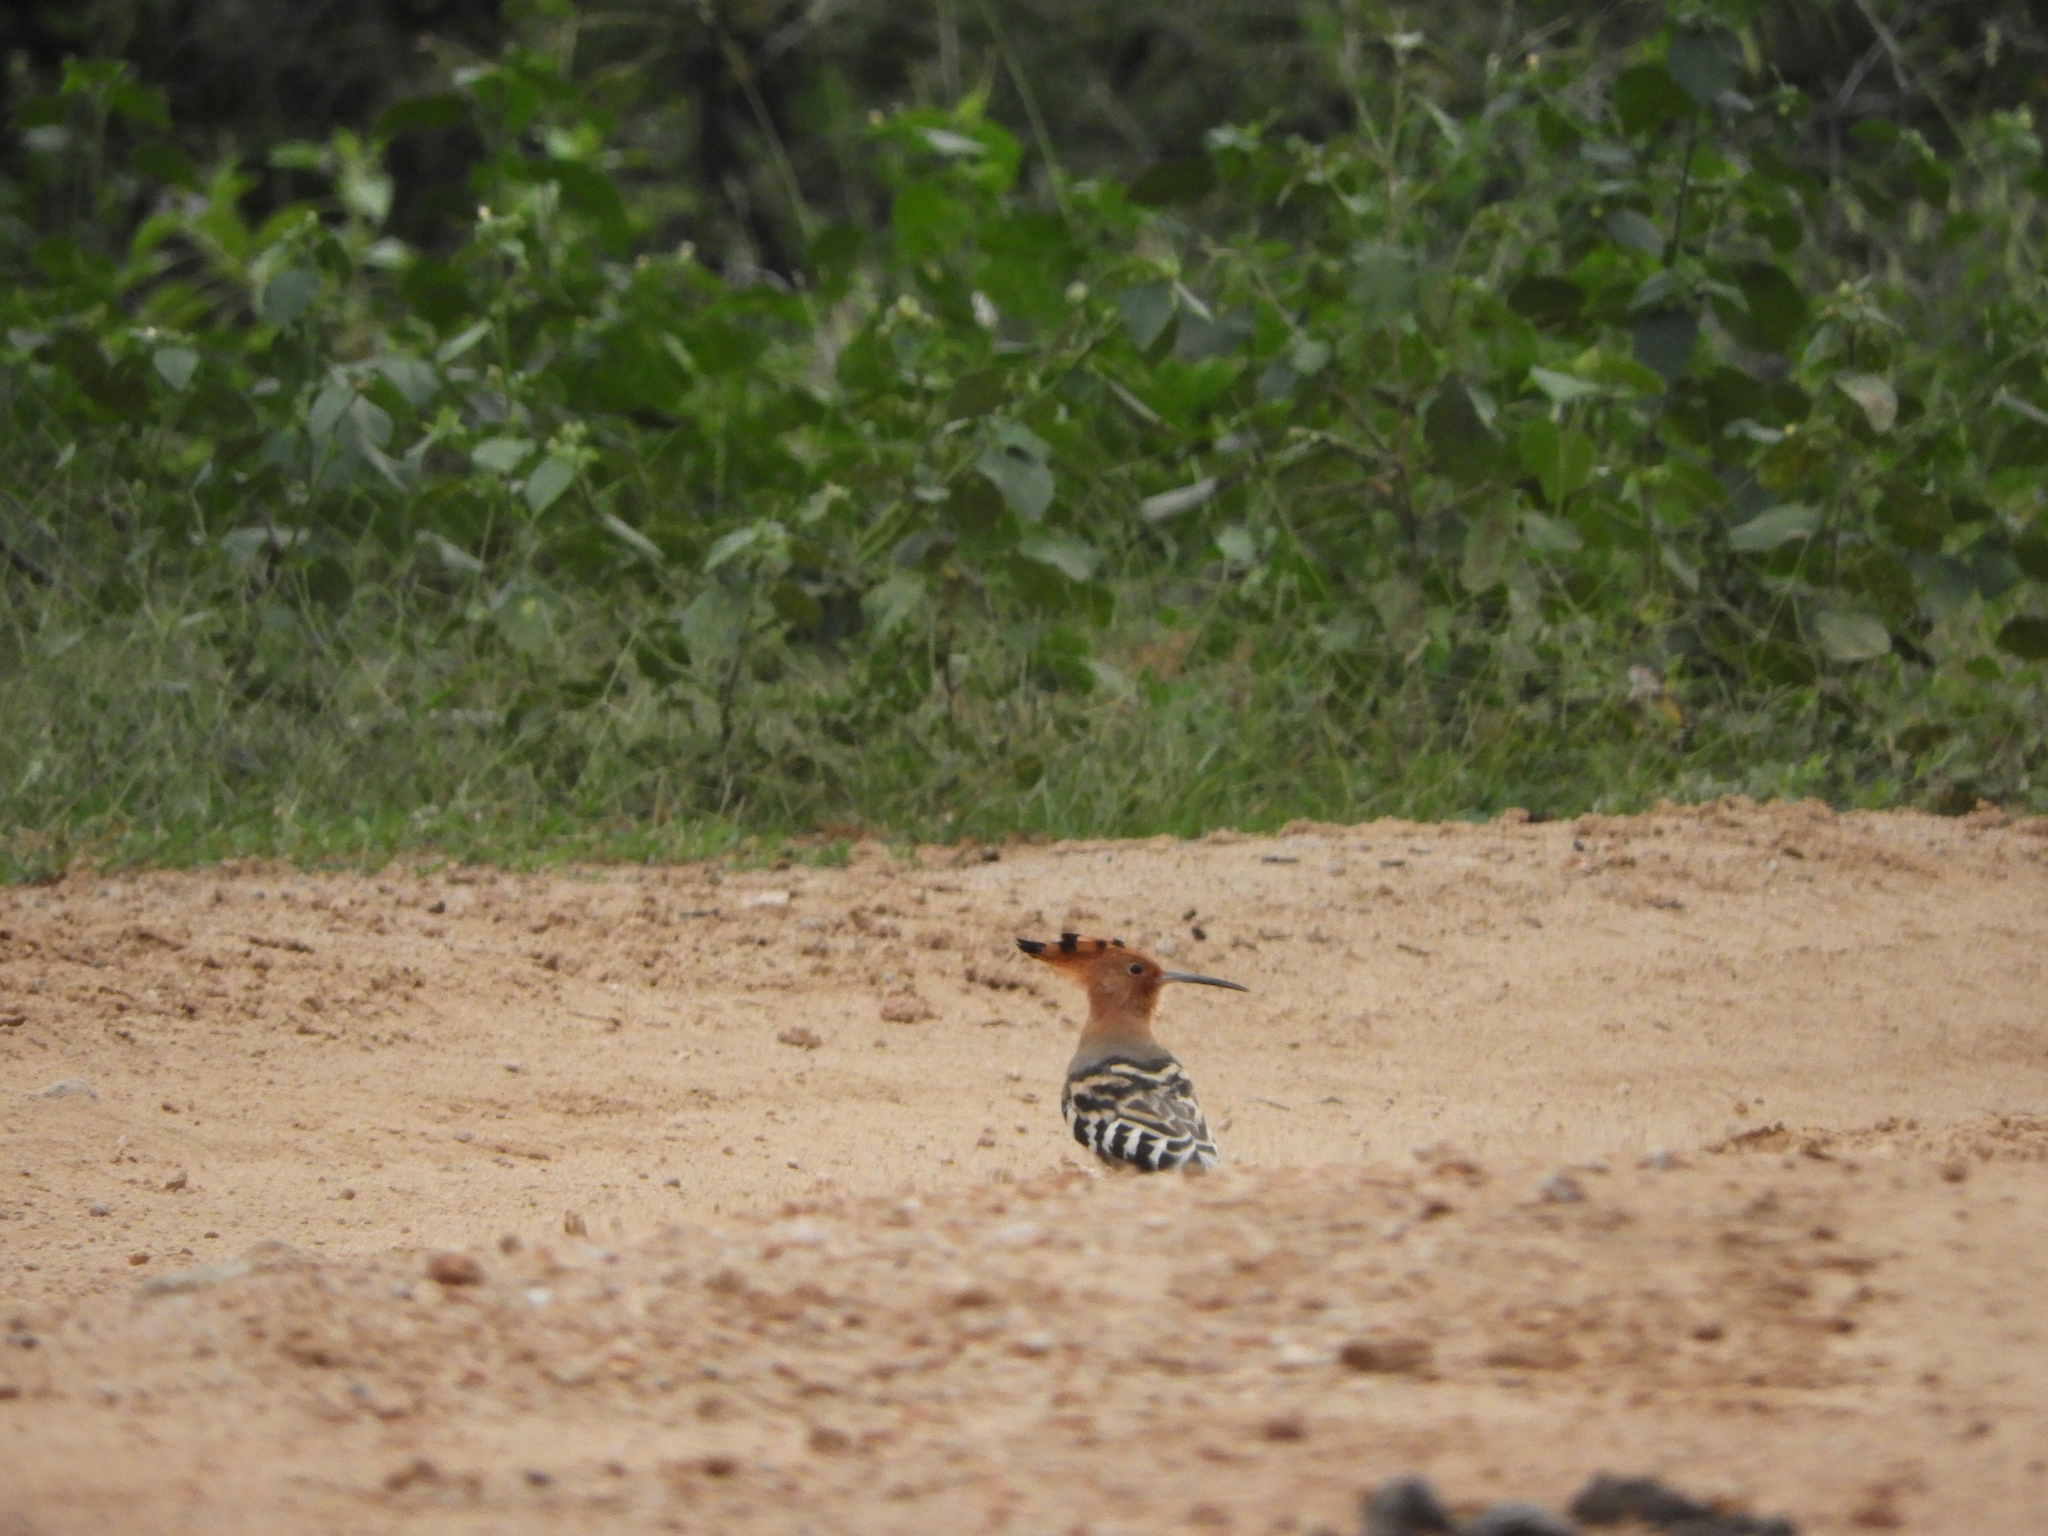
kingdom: Animalia
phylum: Chordata
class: Aves
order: Bucerotiformes
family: Upupidae
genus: Upupa
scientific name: Upupa epops
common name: Eurasian hoopoe
